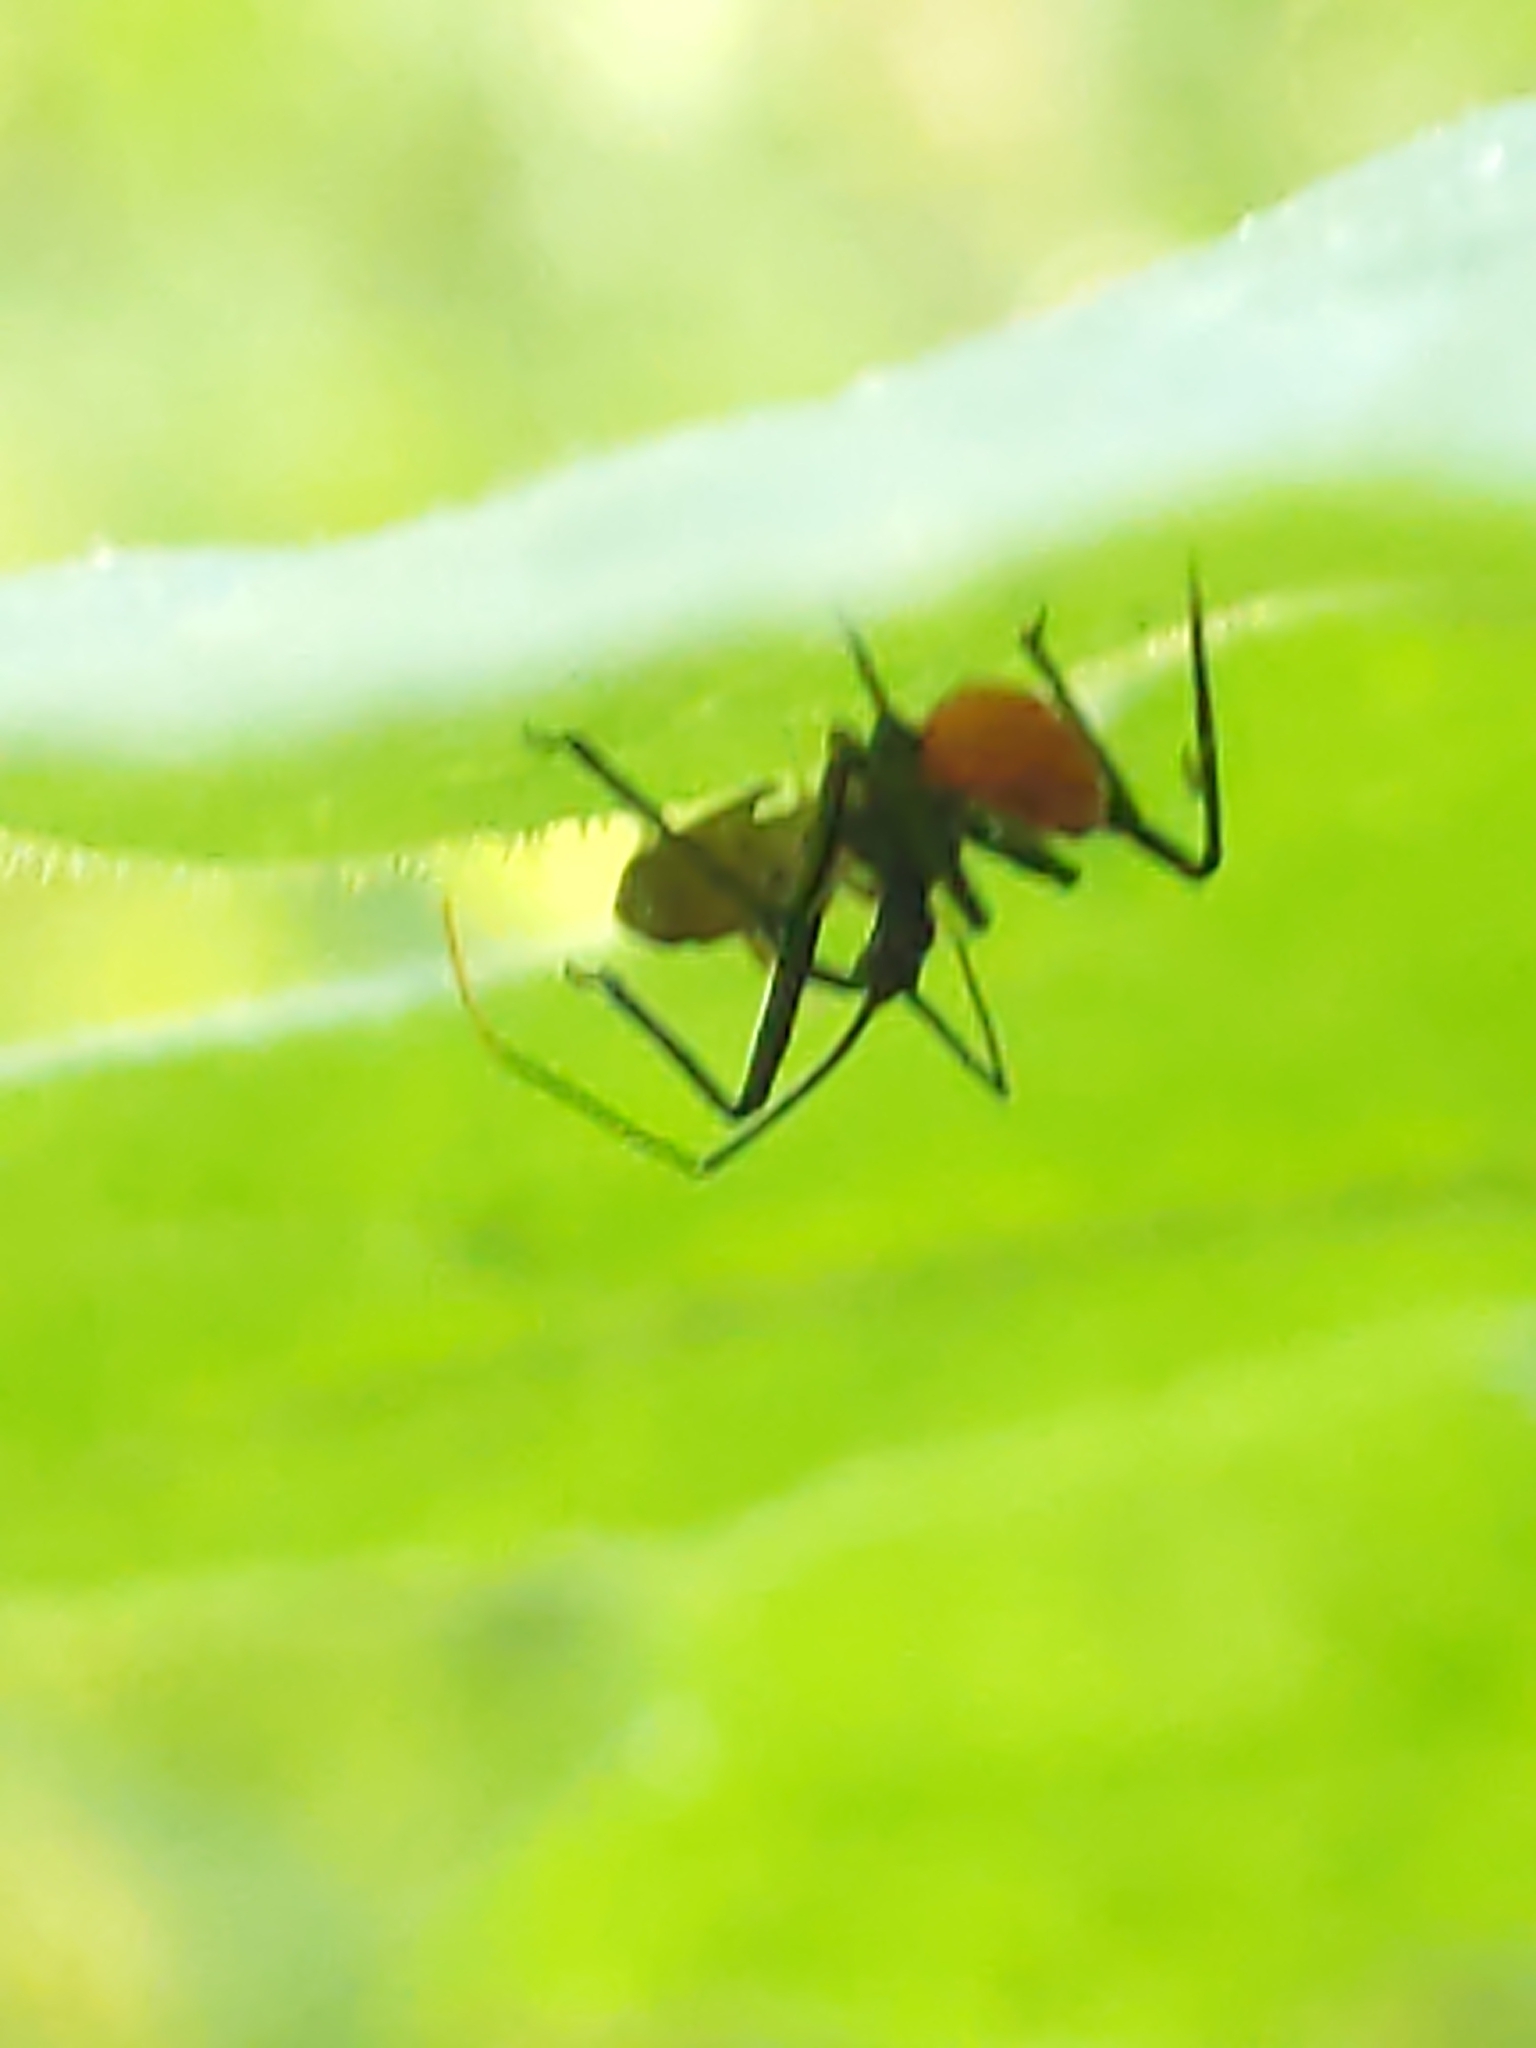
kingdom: Animalia
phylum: Arthropoda
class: Insecta
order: Hemiptera
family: Reduviidae
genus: Arilus
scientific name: Arilus cristatus
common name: North american wheel bug
